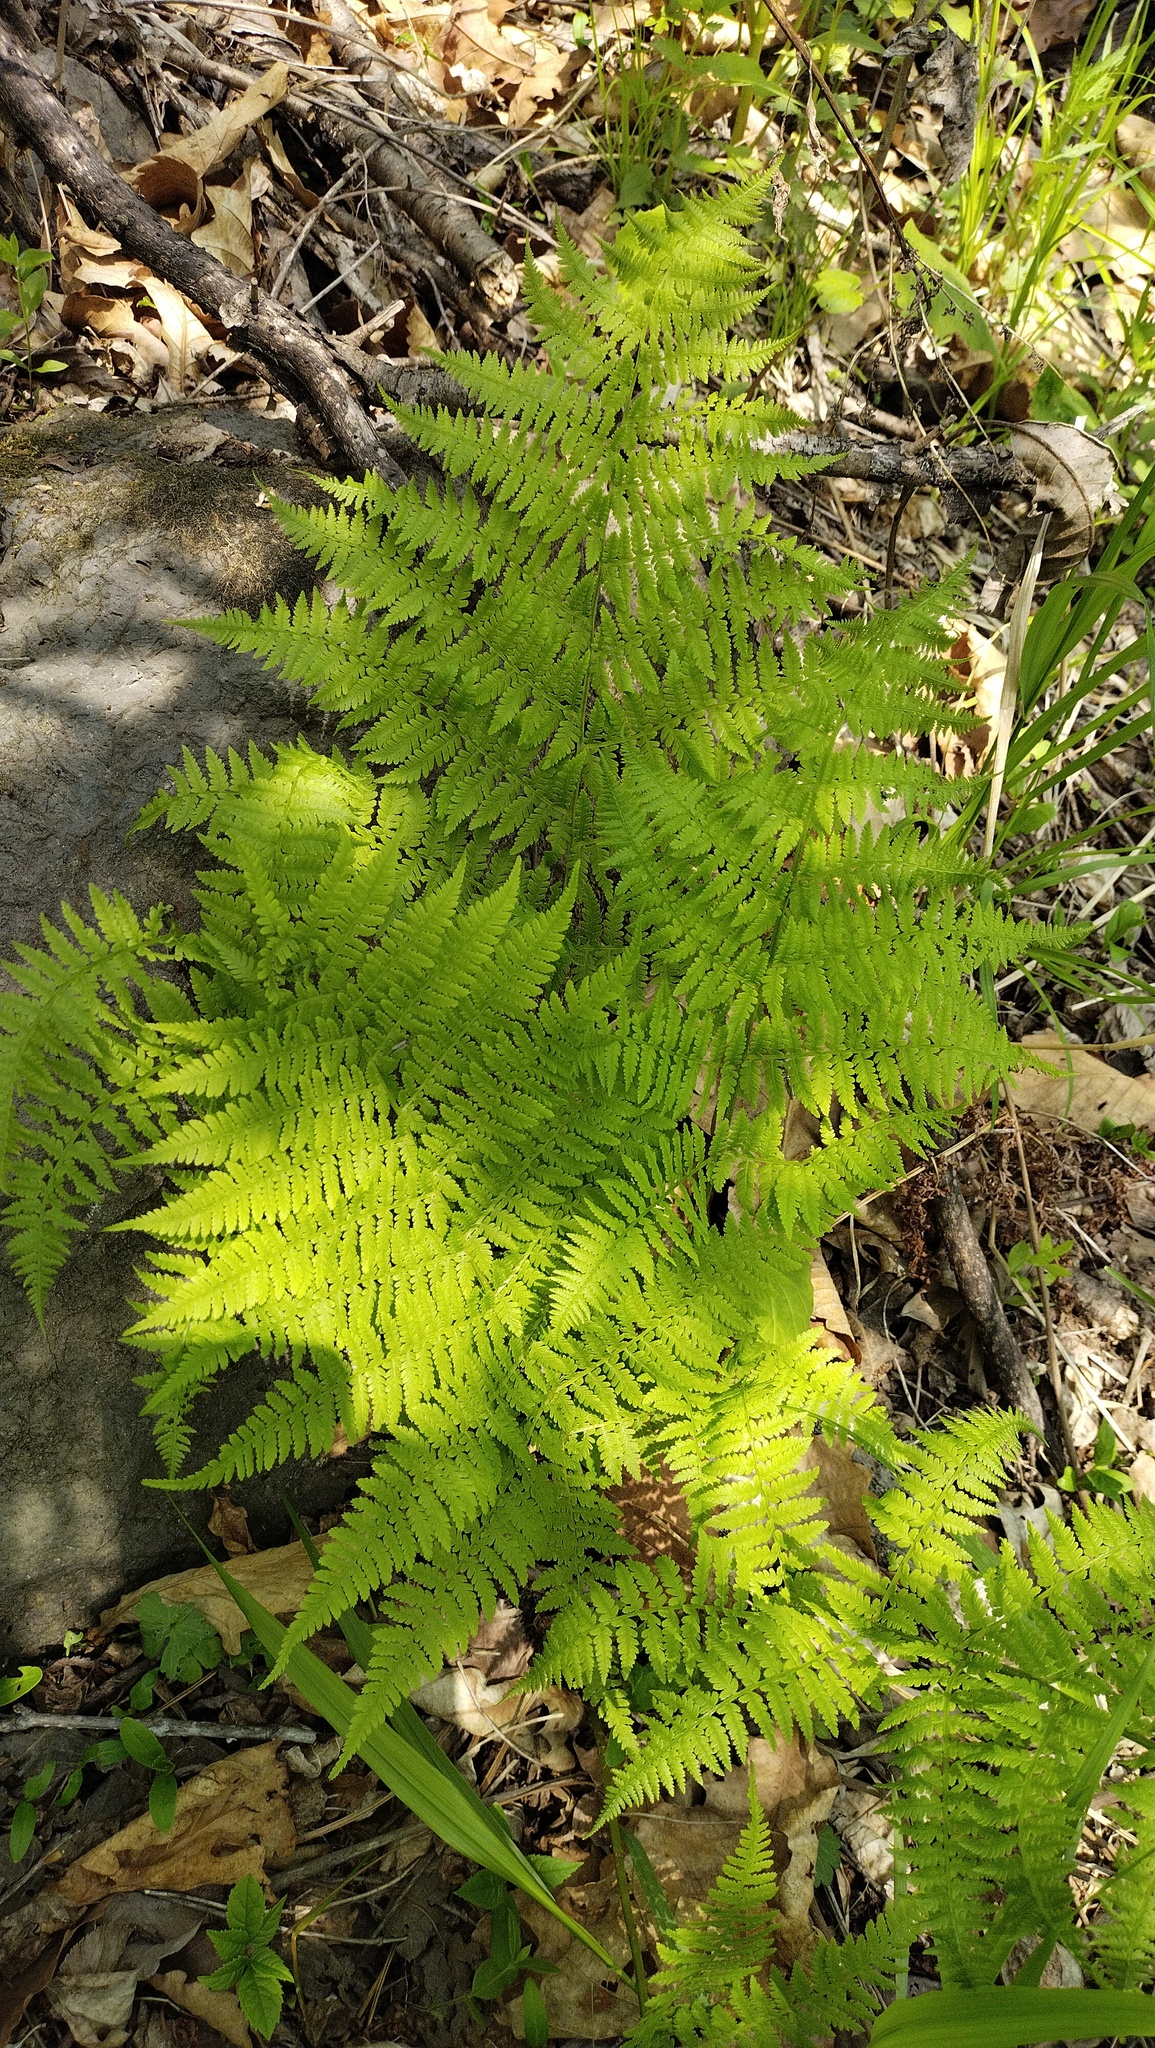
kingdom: Plantae
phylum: Tracheophyta
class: Polypodiopsida
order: Polypodiales
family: Athyriaceae
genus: Athyrium
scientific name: Athyrium filix-femina
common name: Lady fern
